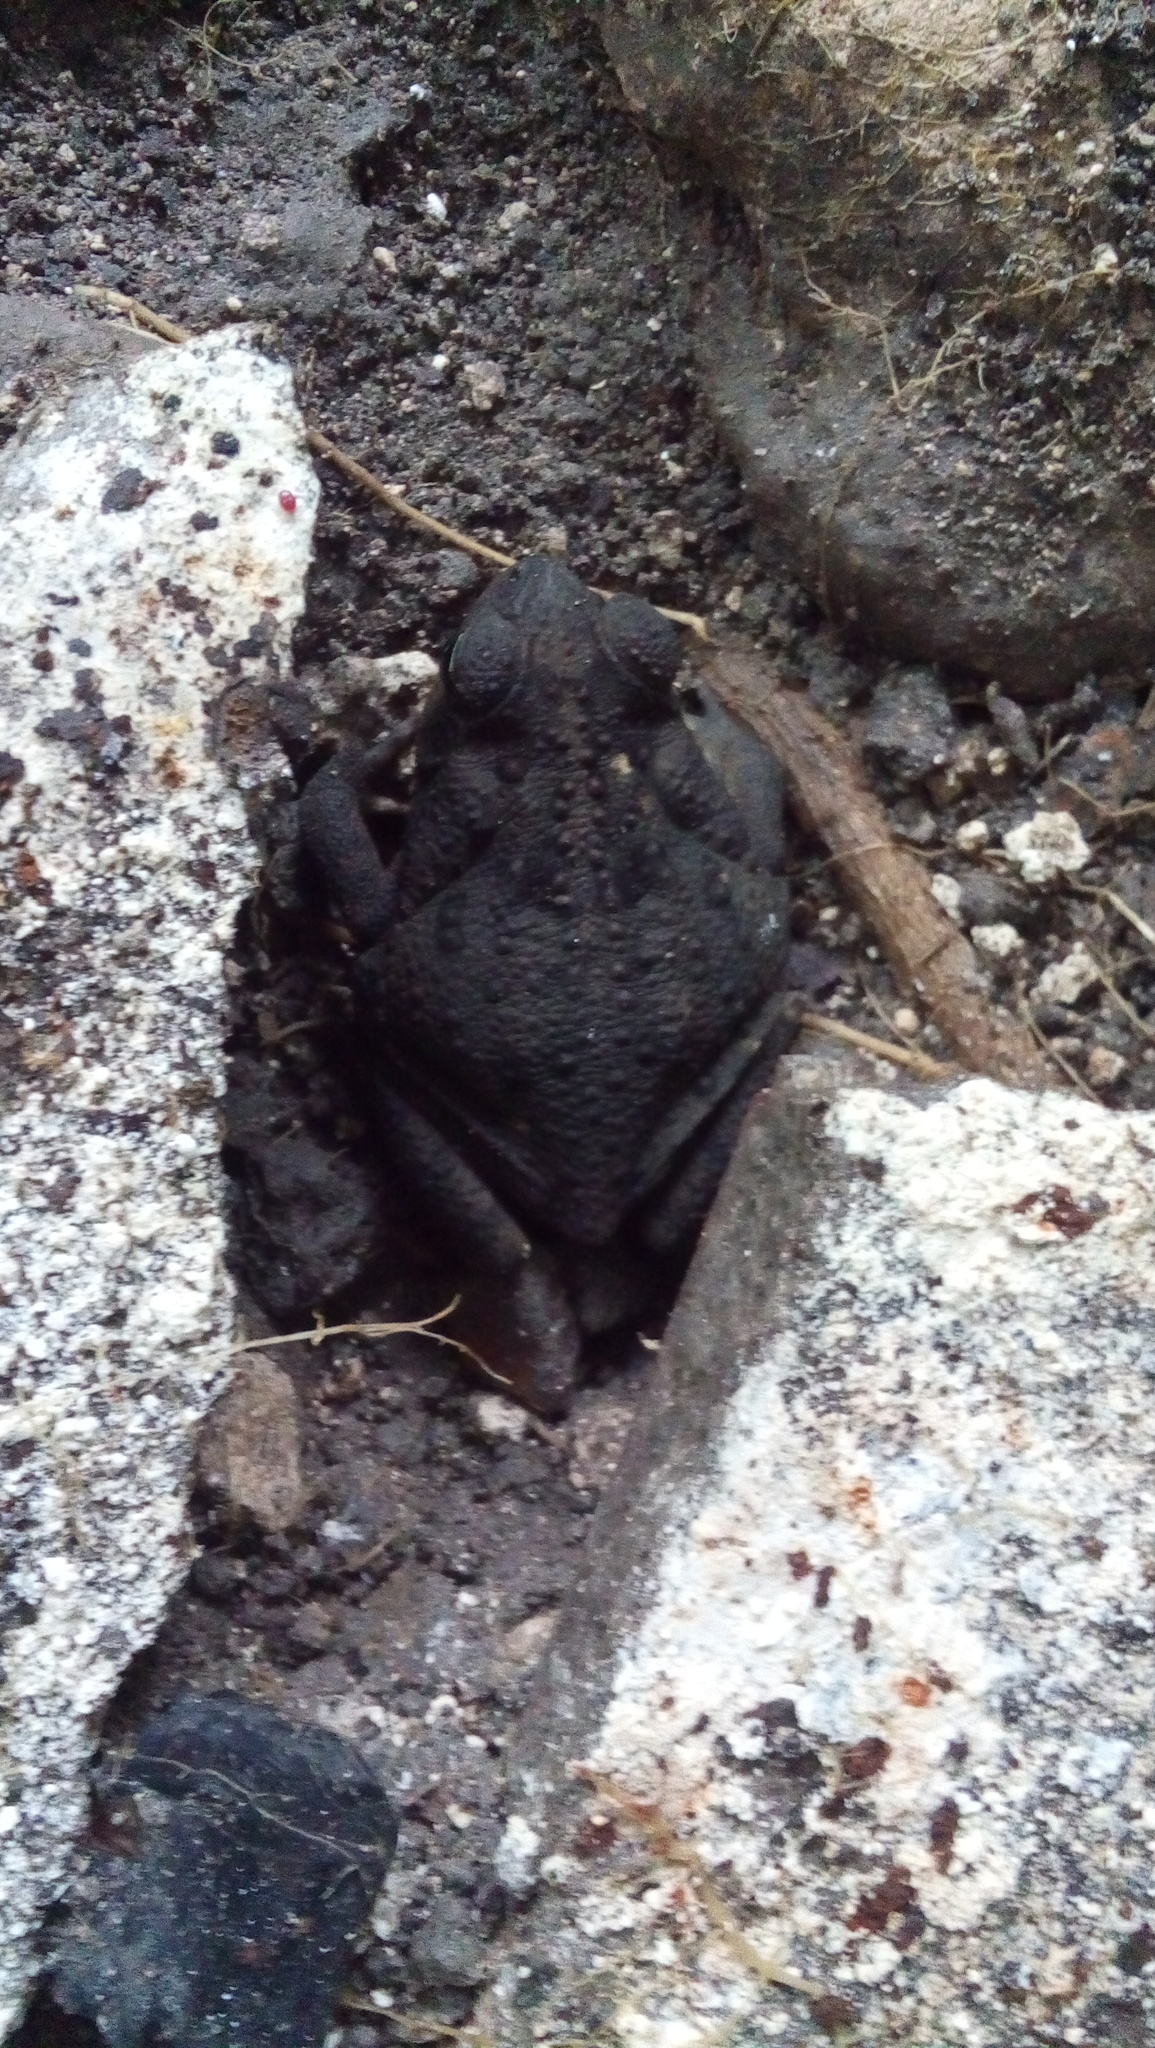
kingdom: Animalia
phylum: Chordata
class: Amphibia
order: Anura
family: Bufonidae
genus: Rhinella
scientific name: Rhinella horribilis
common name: Mesoamerican cane toad
